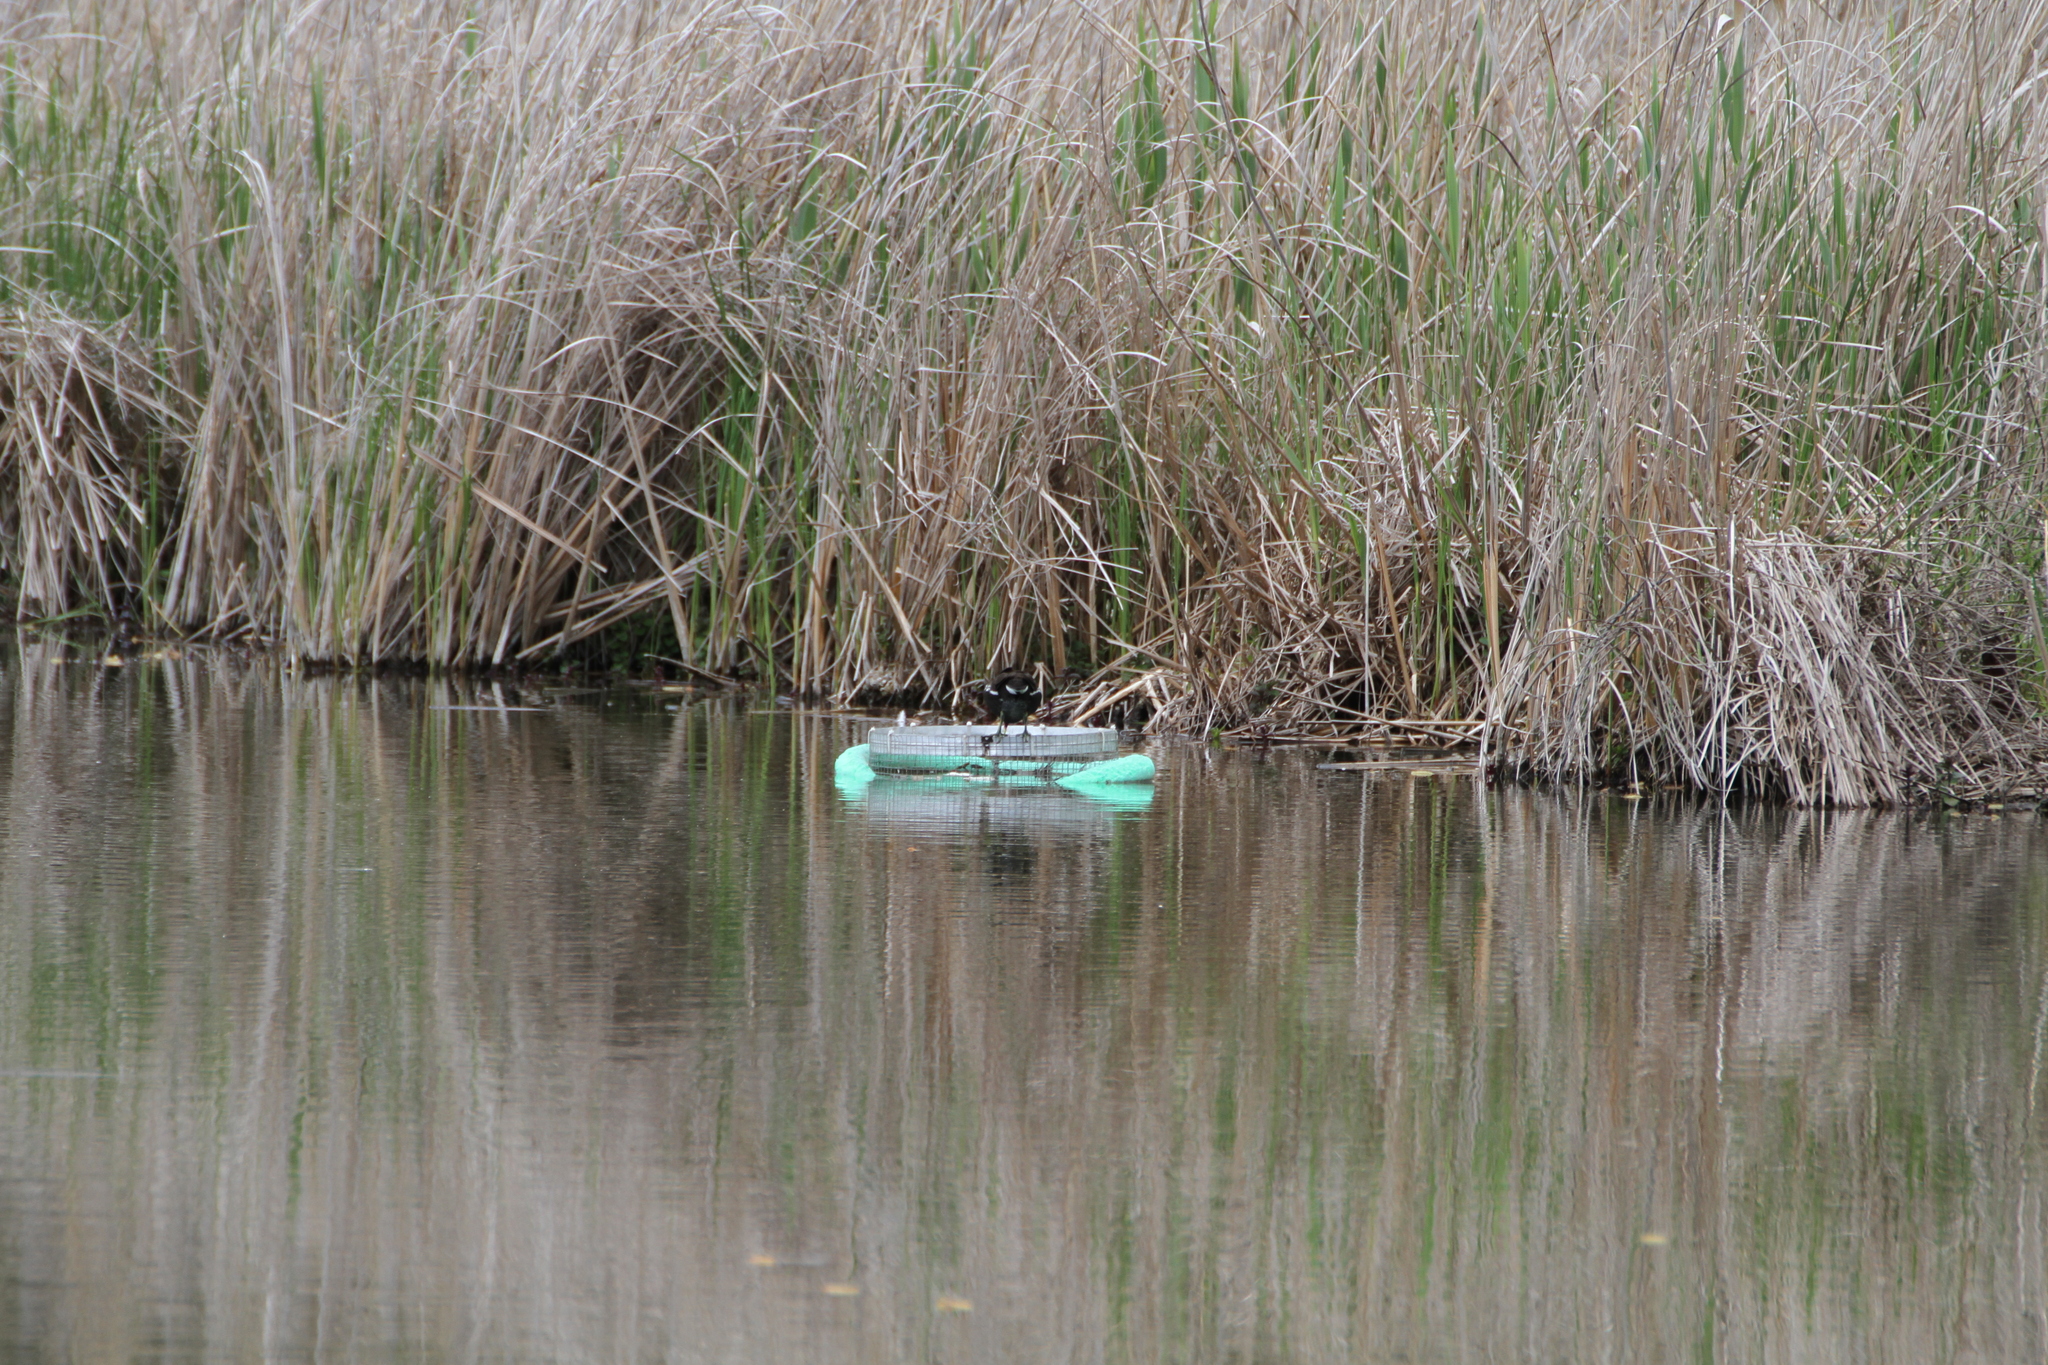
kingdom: Animalia
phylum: Chordata
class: Aves
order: Gruiformes
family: Rallidae
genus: Gallinula
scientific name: Gallinula chloropus
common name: Common moorhen
